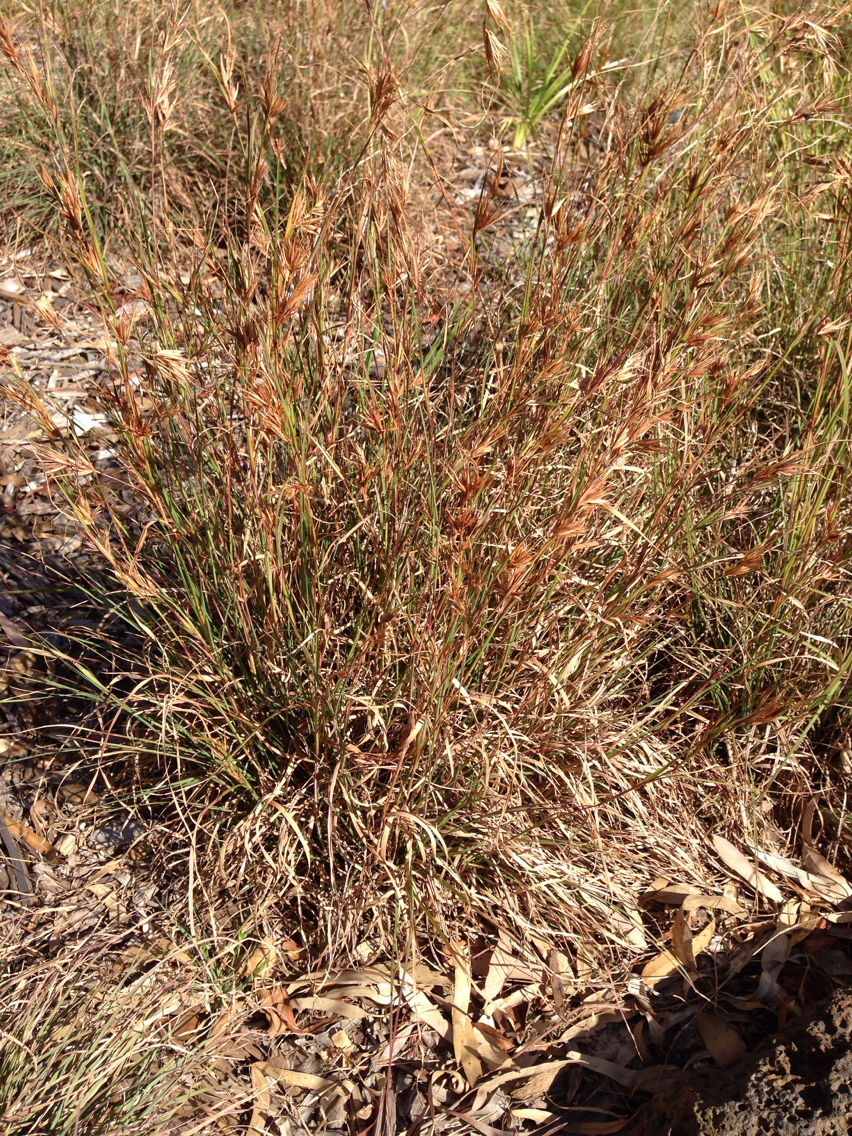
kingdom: Plantae
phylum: Tracheophyta
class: Liliopsida
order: Poales
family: Poaceae
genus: Themeda
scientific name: Themeda triandra
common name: Kangaroo grass
